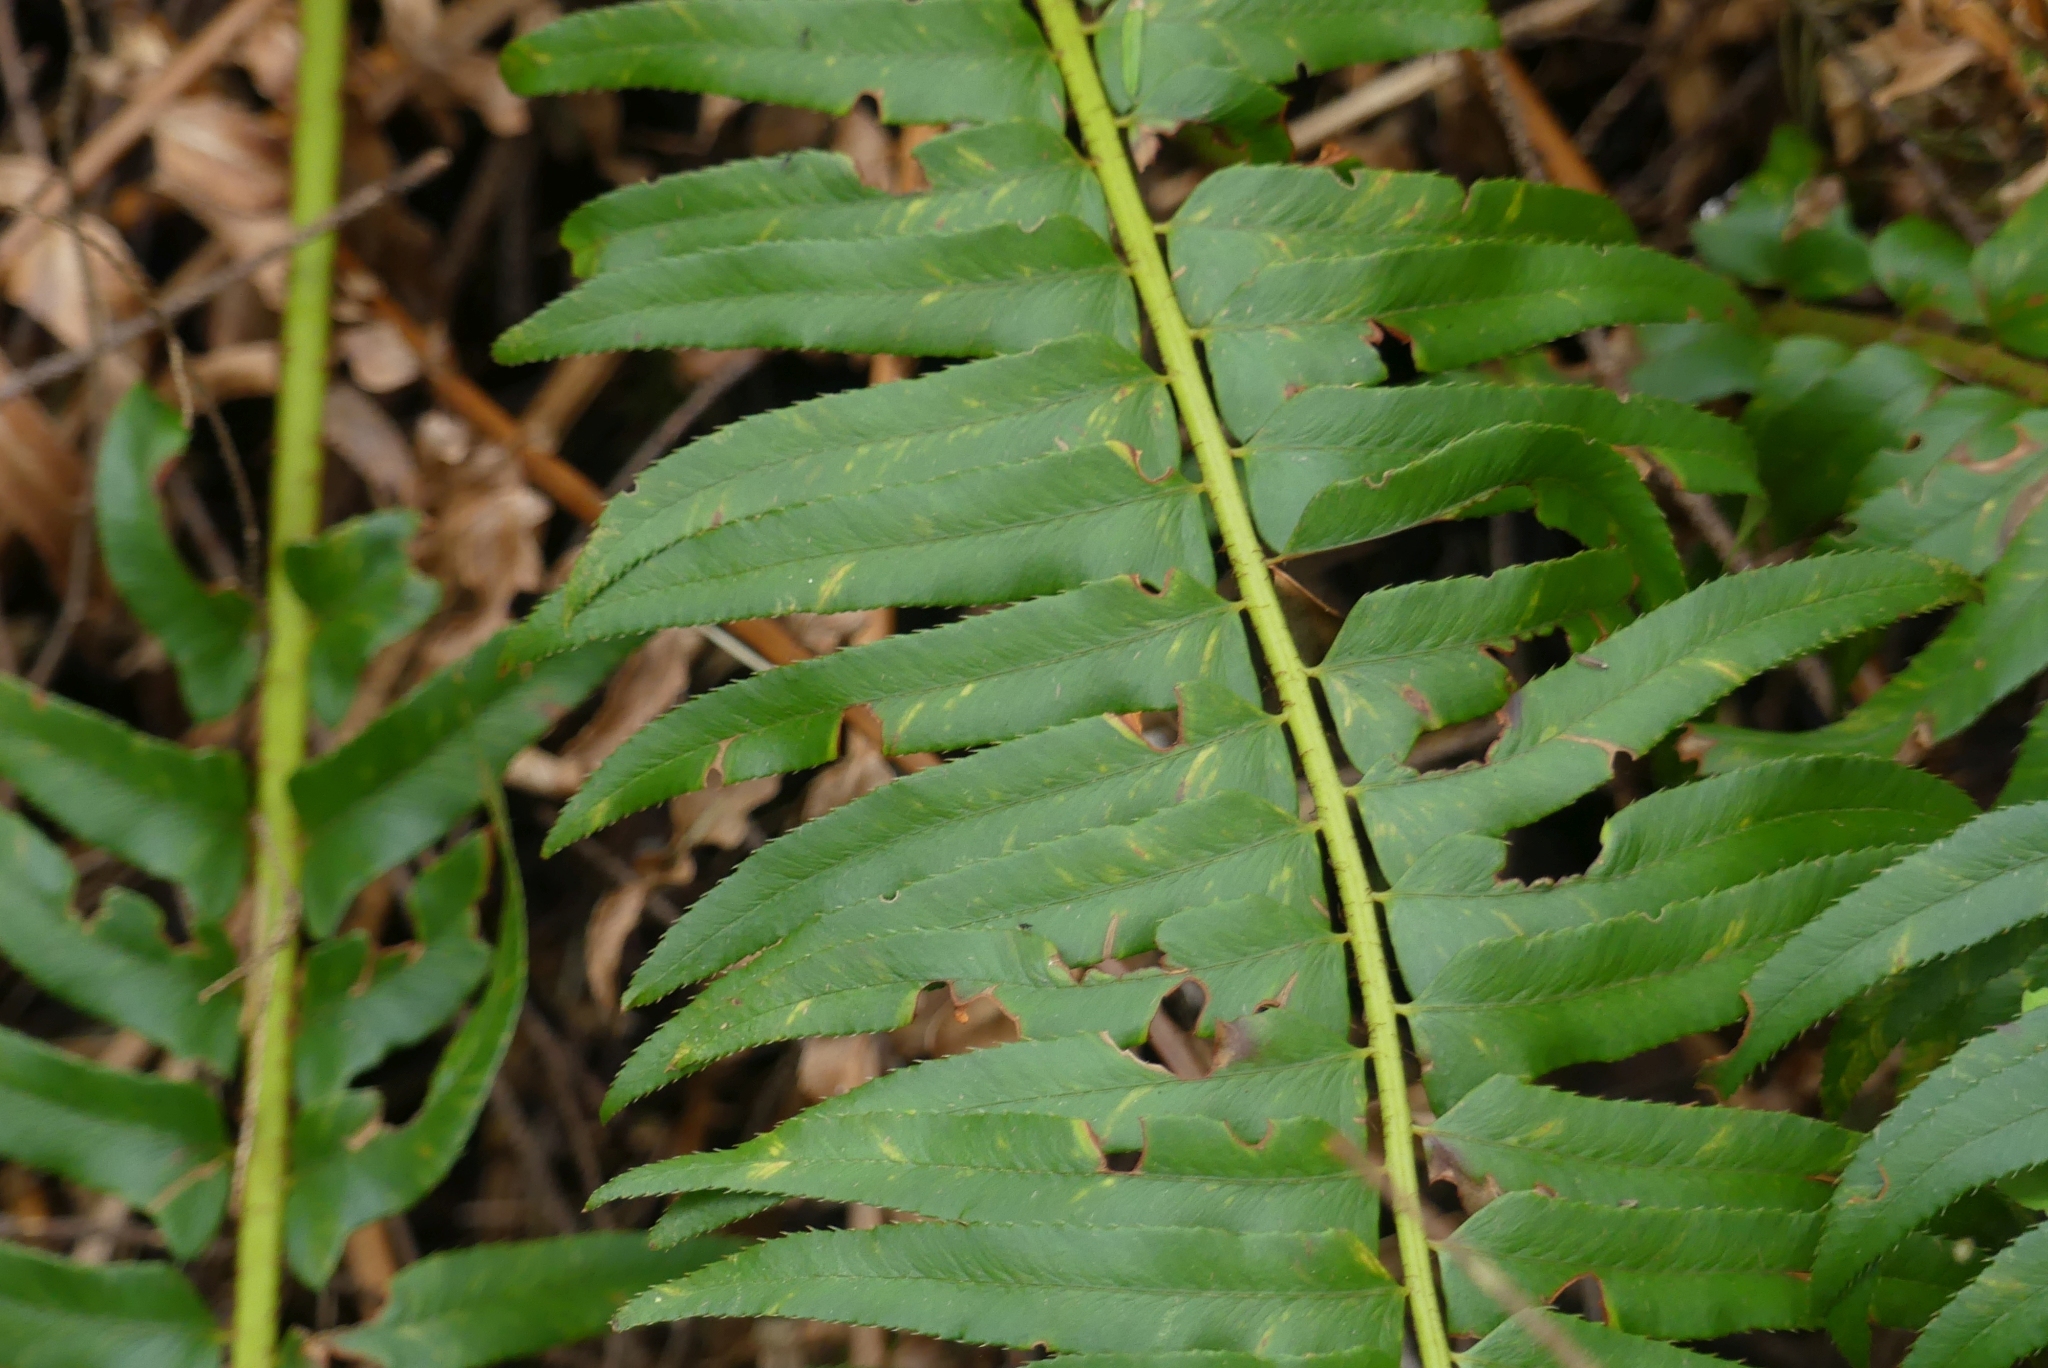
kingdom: Plantae
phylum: Tracheophyta
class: Polypodiopsida
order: Polypodiales
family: Dryopteridaceae
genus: Polystichum
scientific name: Polystichum munitum
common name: Western sword-fern
